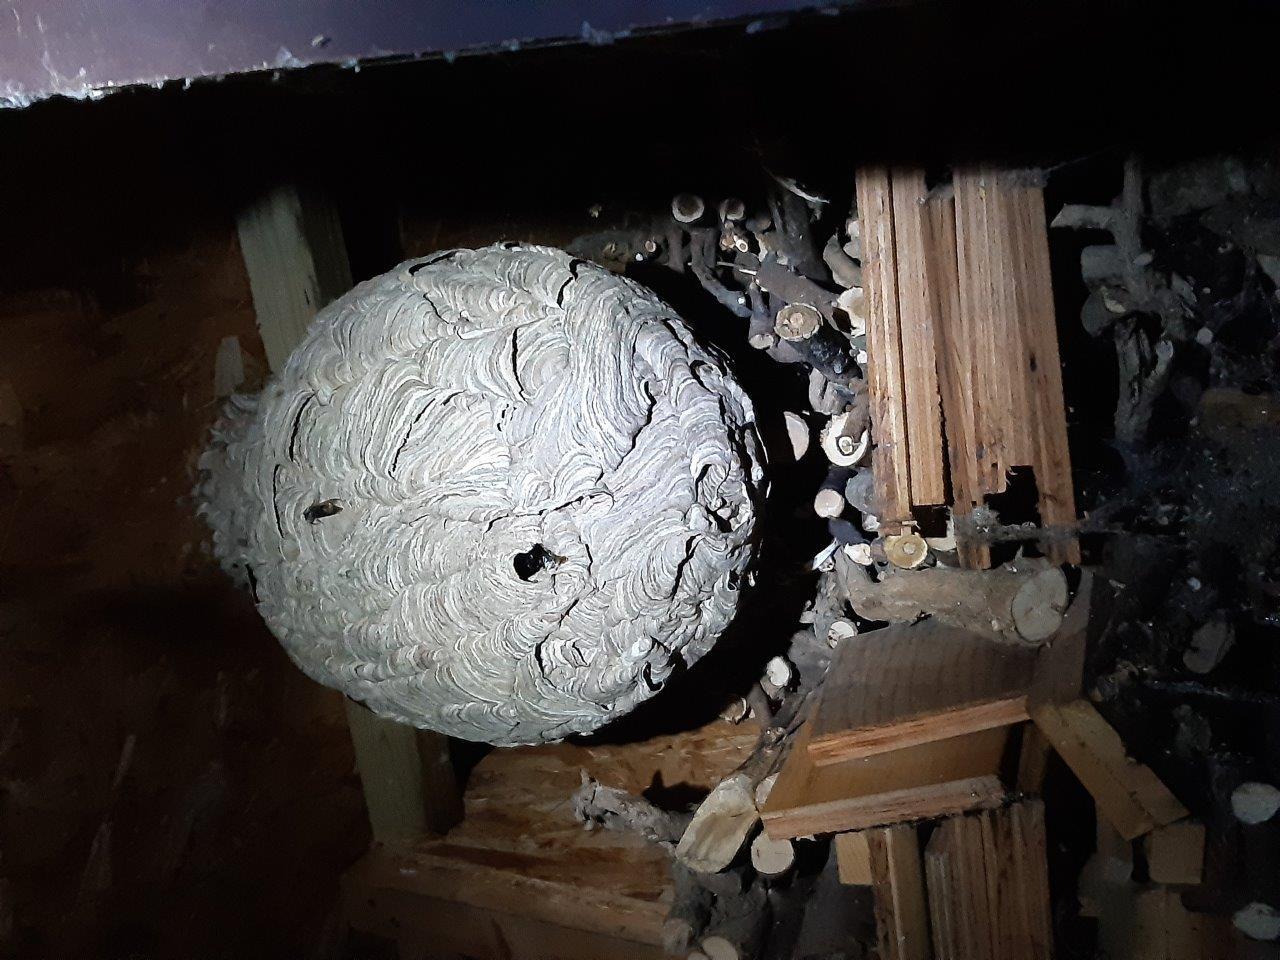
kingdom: Animalia
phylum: Arthropoda
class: Insecta
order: Hymenoptera
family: Vespidae
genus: Vespa
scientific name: Vespa velutina
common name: Asian hornet
